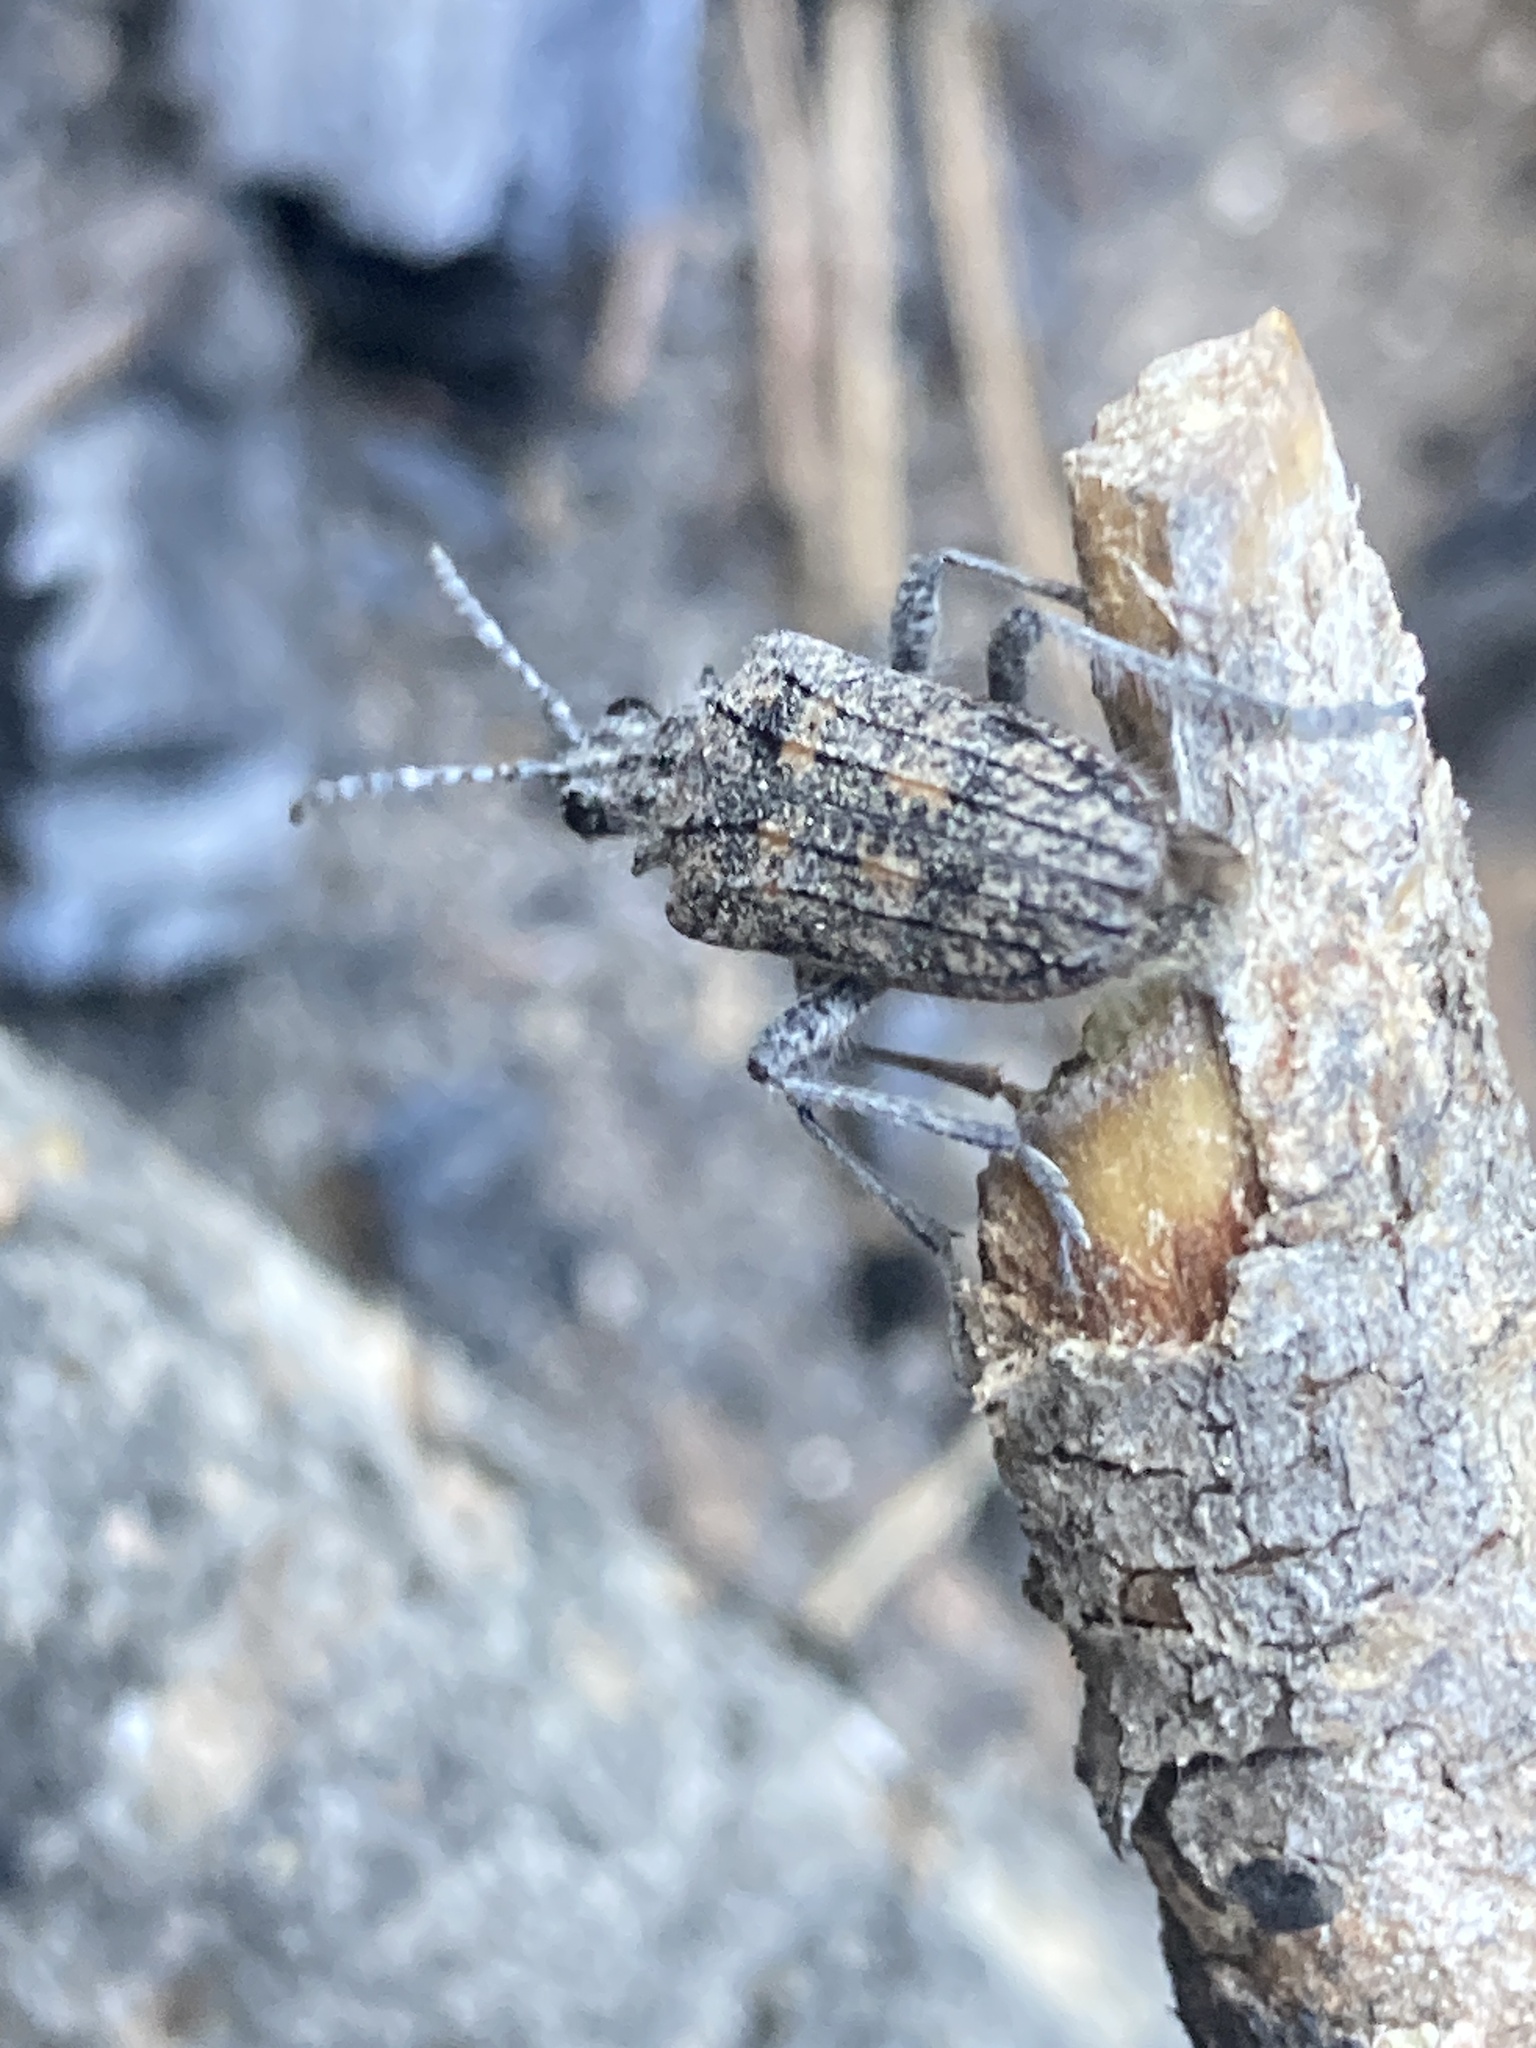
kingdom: Animalia
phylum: Arthropoda
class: Insecta
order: Coleoptera
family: Cerambycidae
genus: Rhagium
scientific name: Rhagium inquisitor
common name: Ribbed pine borer
